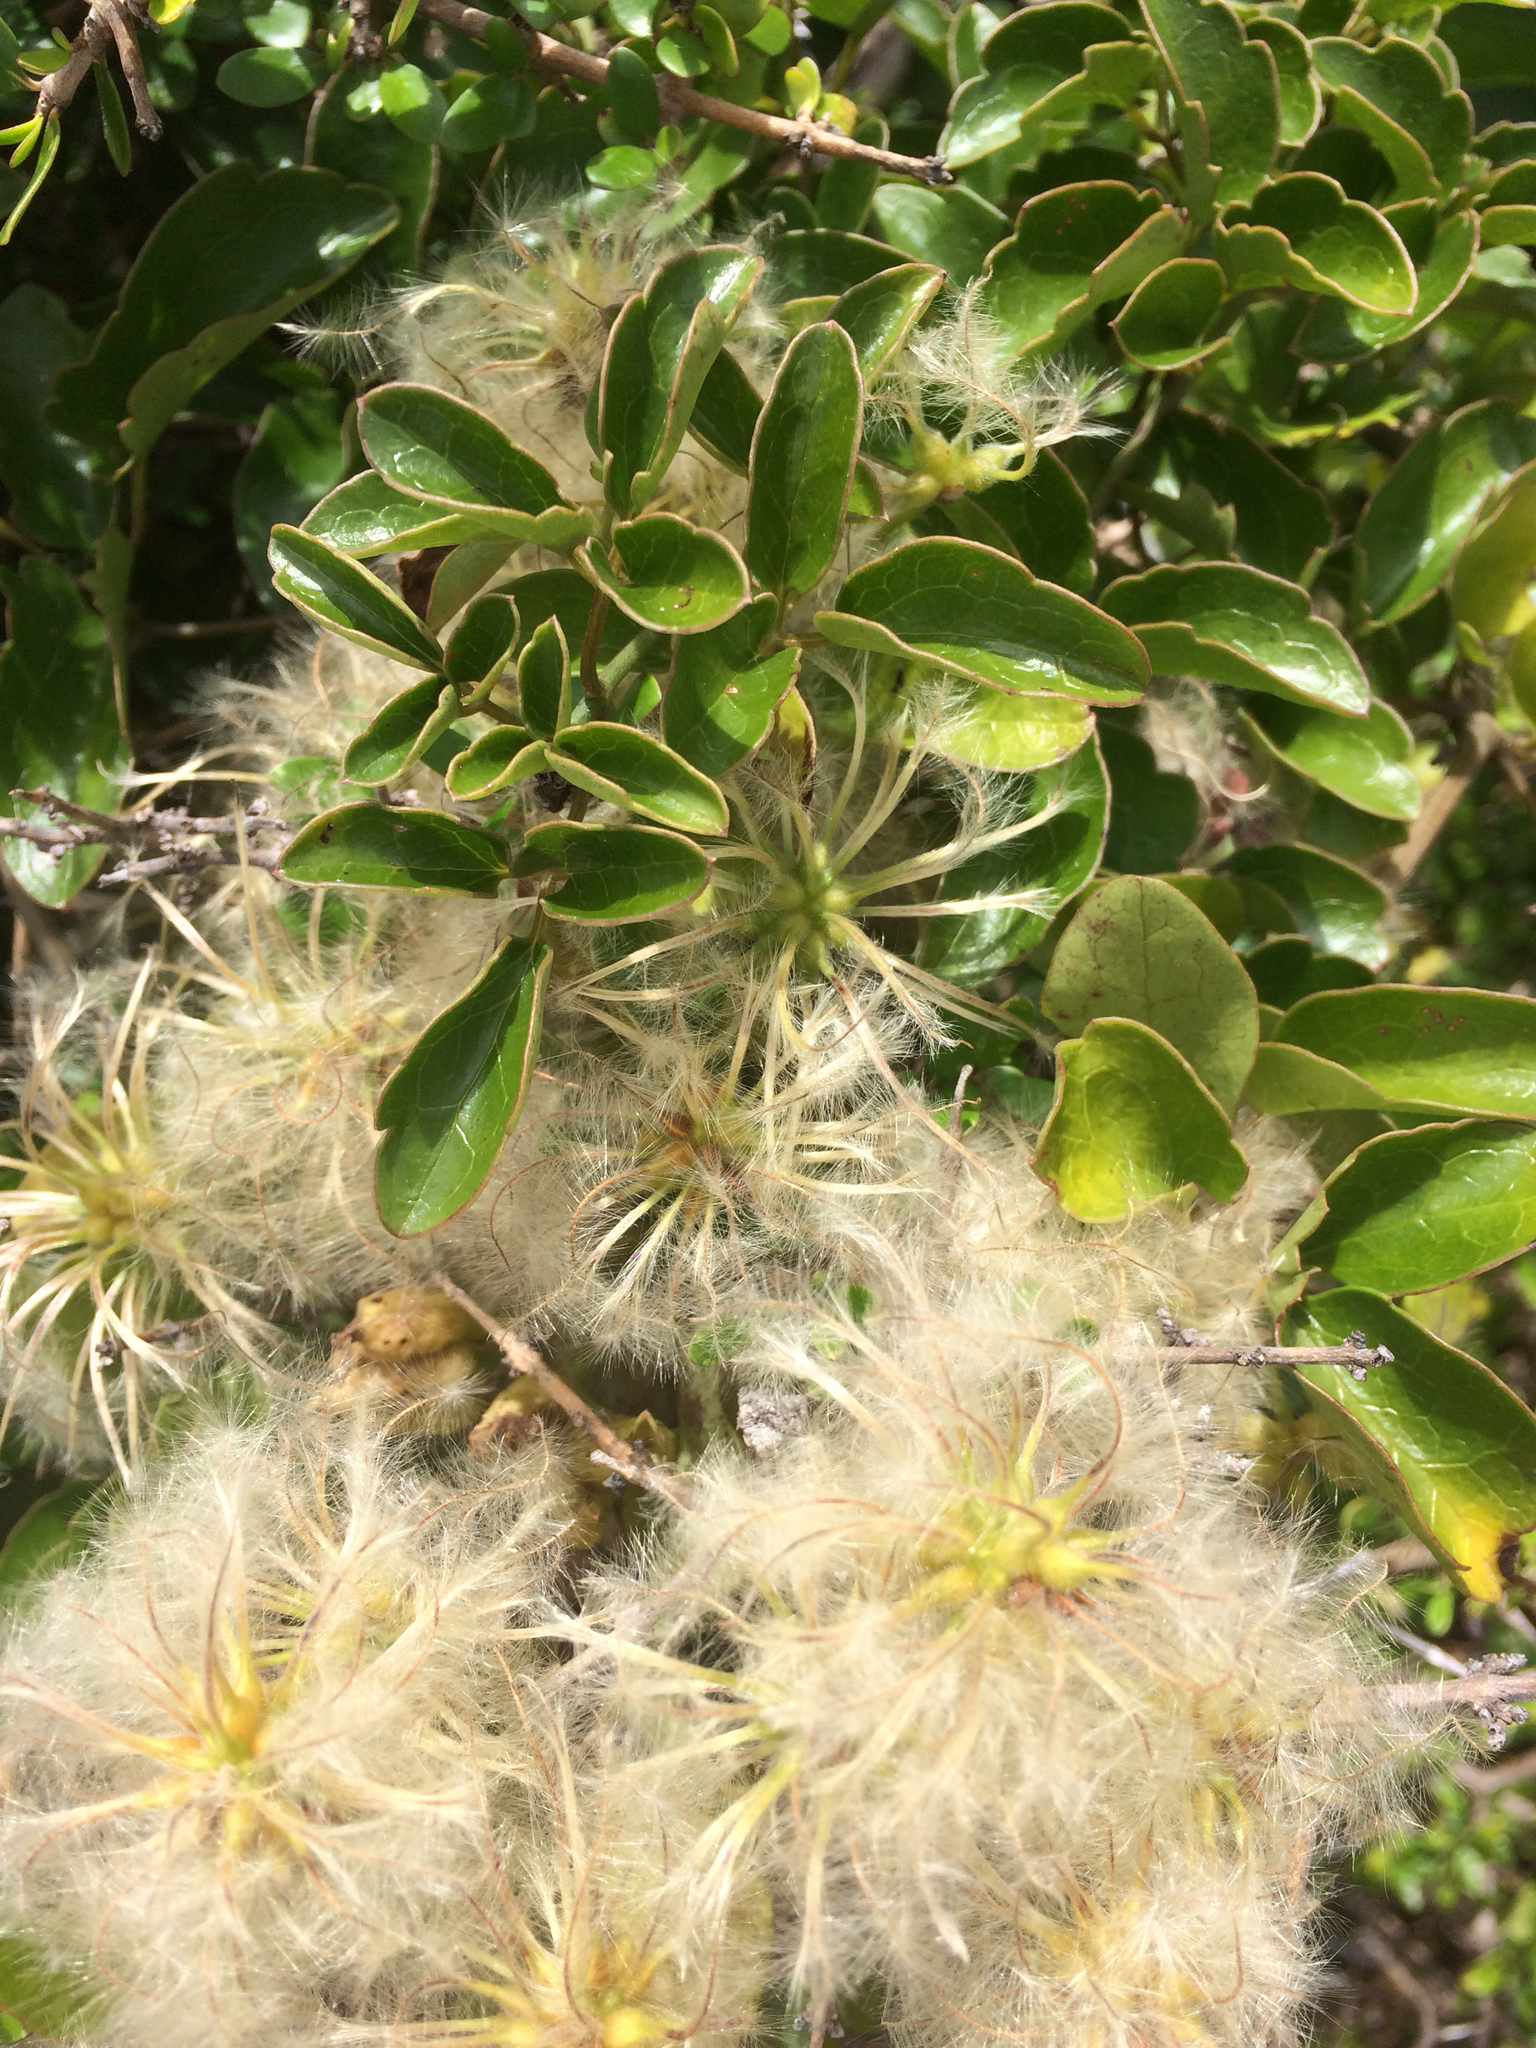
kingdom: Plantae
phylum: Tracheophyta
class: Magnoliopsida
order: Ranunculales
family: Ranunculaceae
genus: Clematis
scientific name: Clematis forsteri
